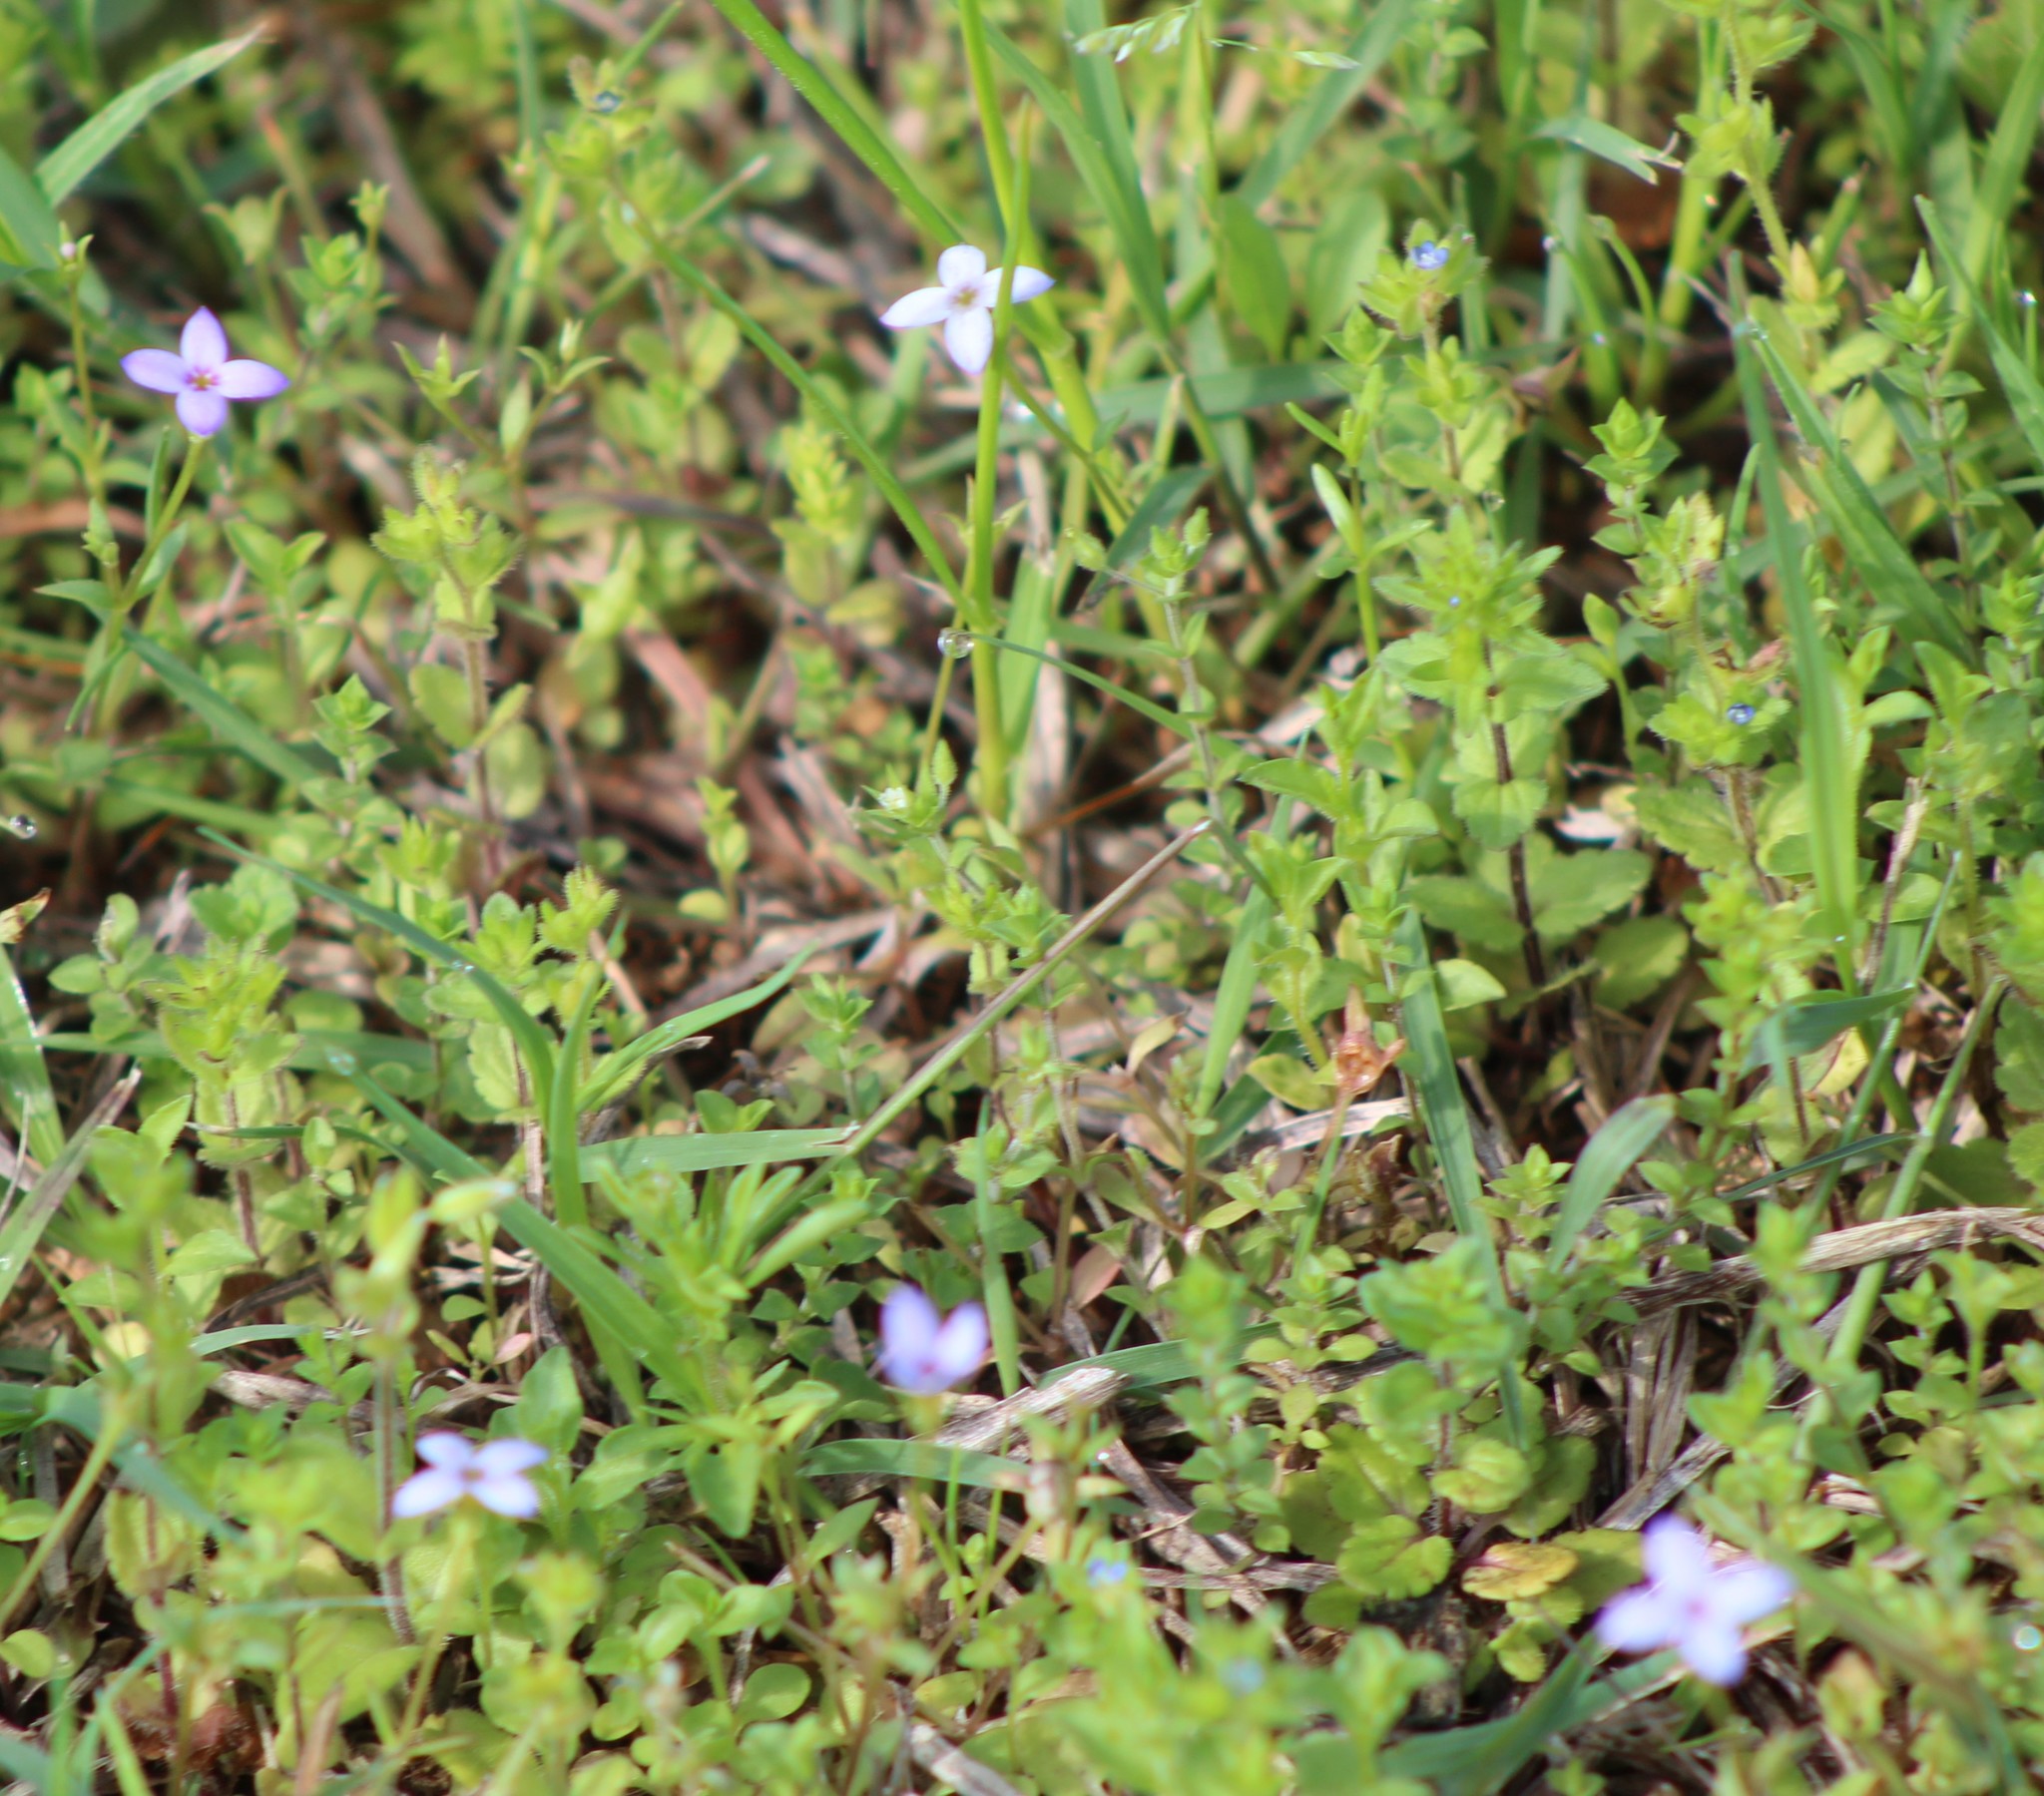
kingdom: Plantae
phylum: Tracheophyta
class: Magnoliopsida
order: Gentianales
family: Rubiaceae
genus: Houstonia
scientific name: Houstonia pusilla
